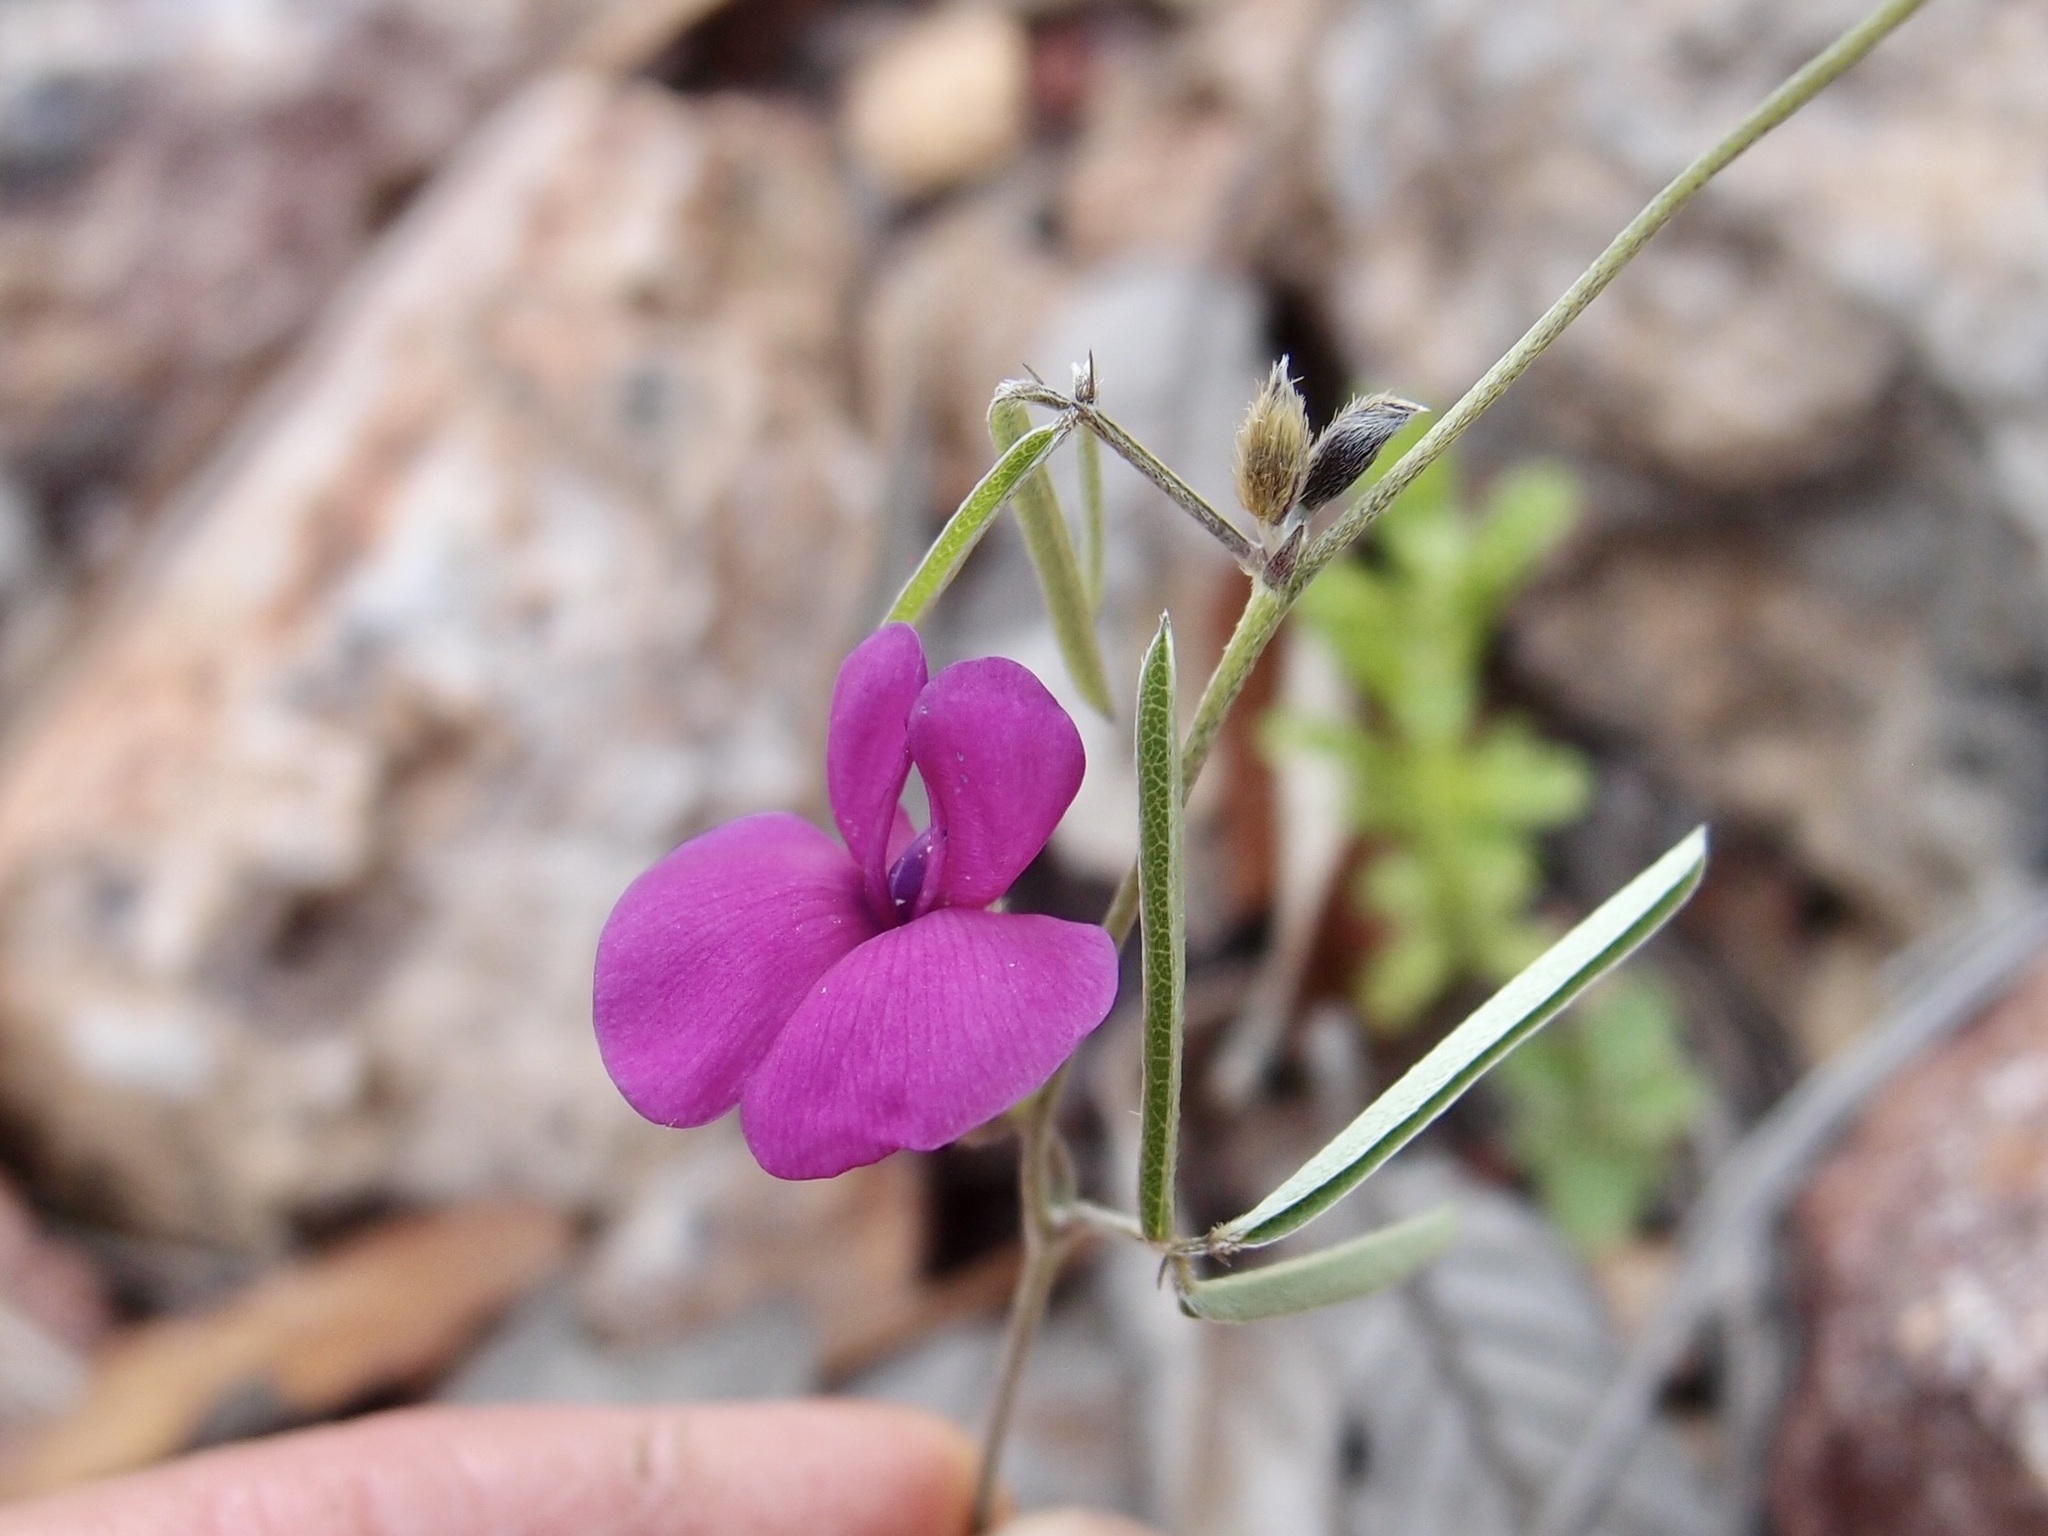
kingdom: Plantae
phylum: Tracheophyta
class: Magnoliopsida
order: Fabales
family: Fabaceae
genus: Cologania
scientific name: Cologania angustifolia
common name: Longleaf cologania
